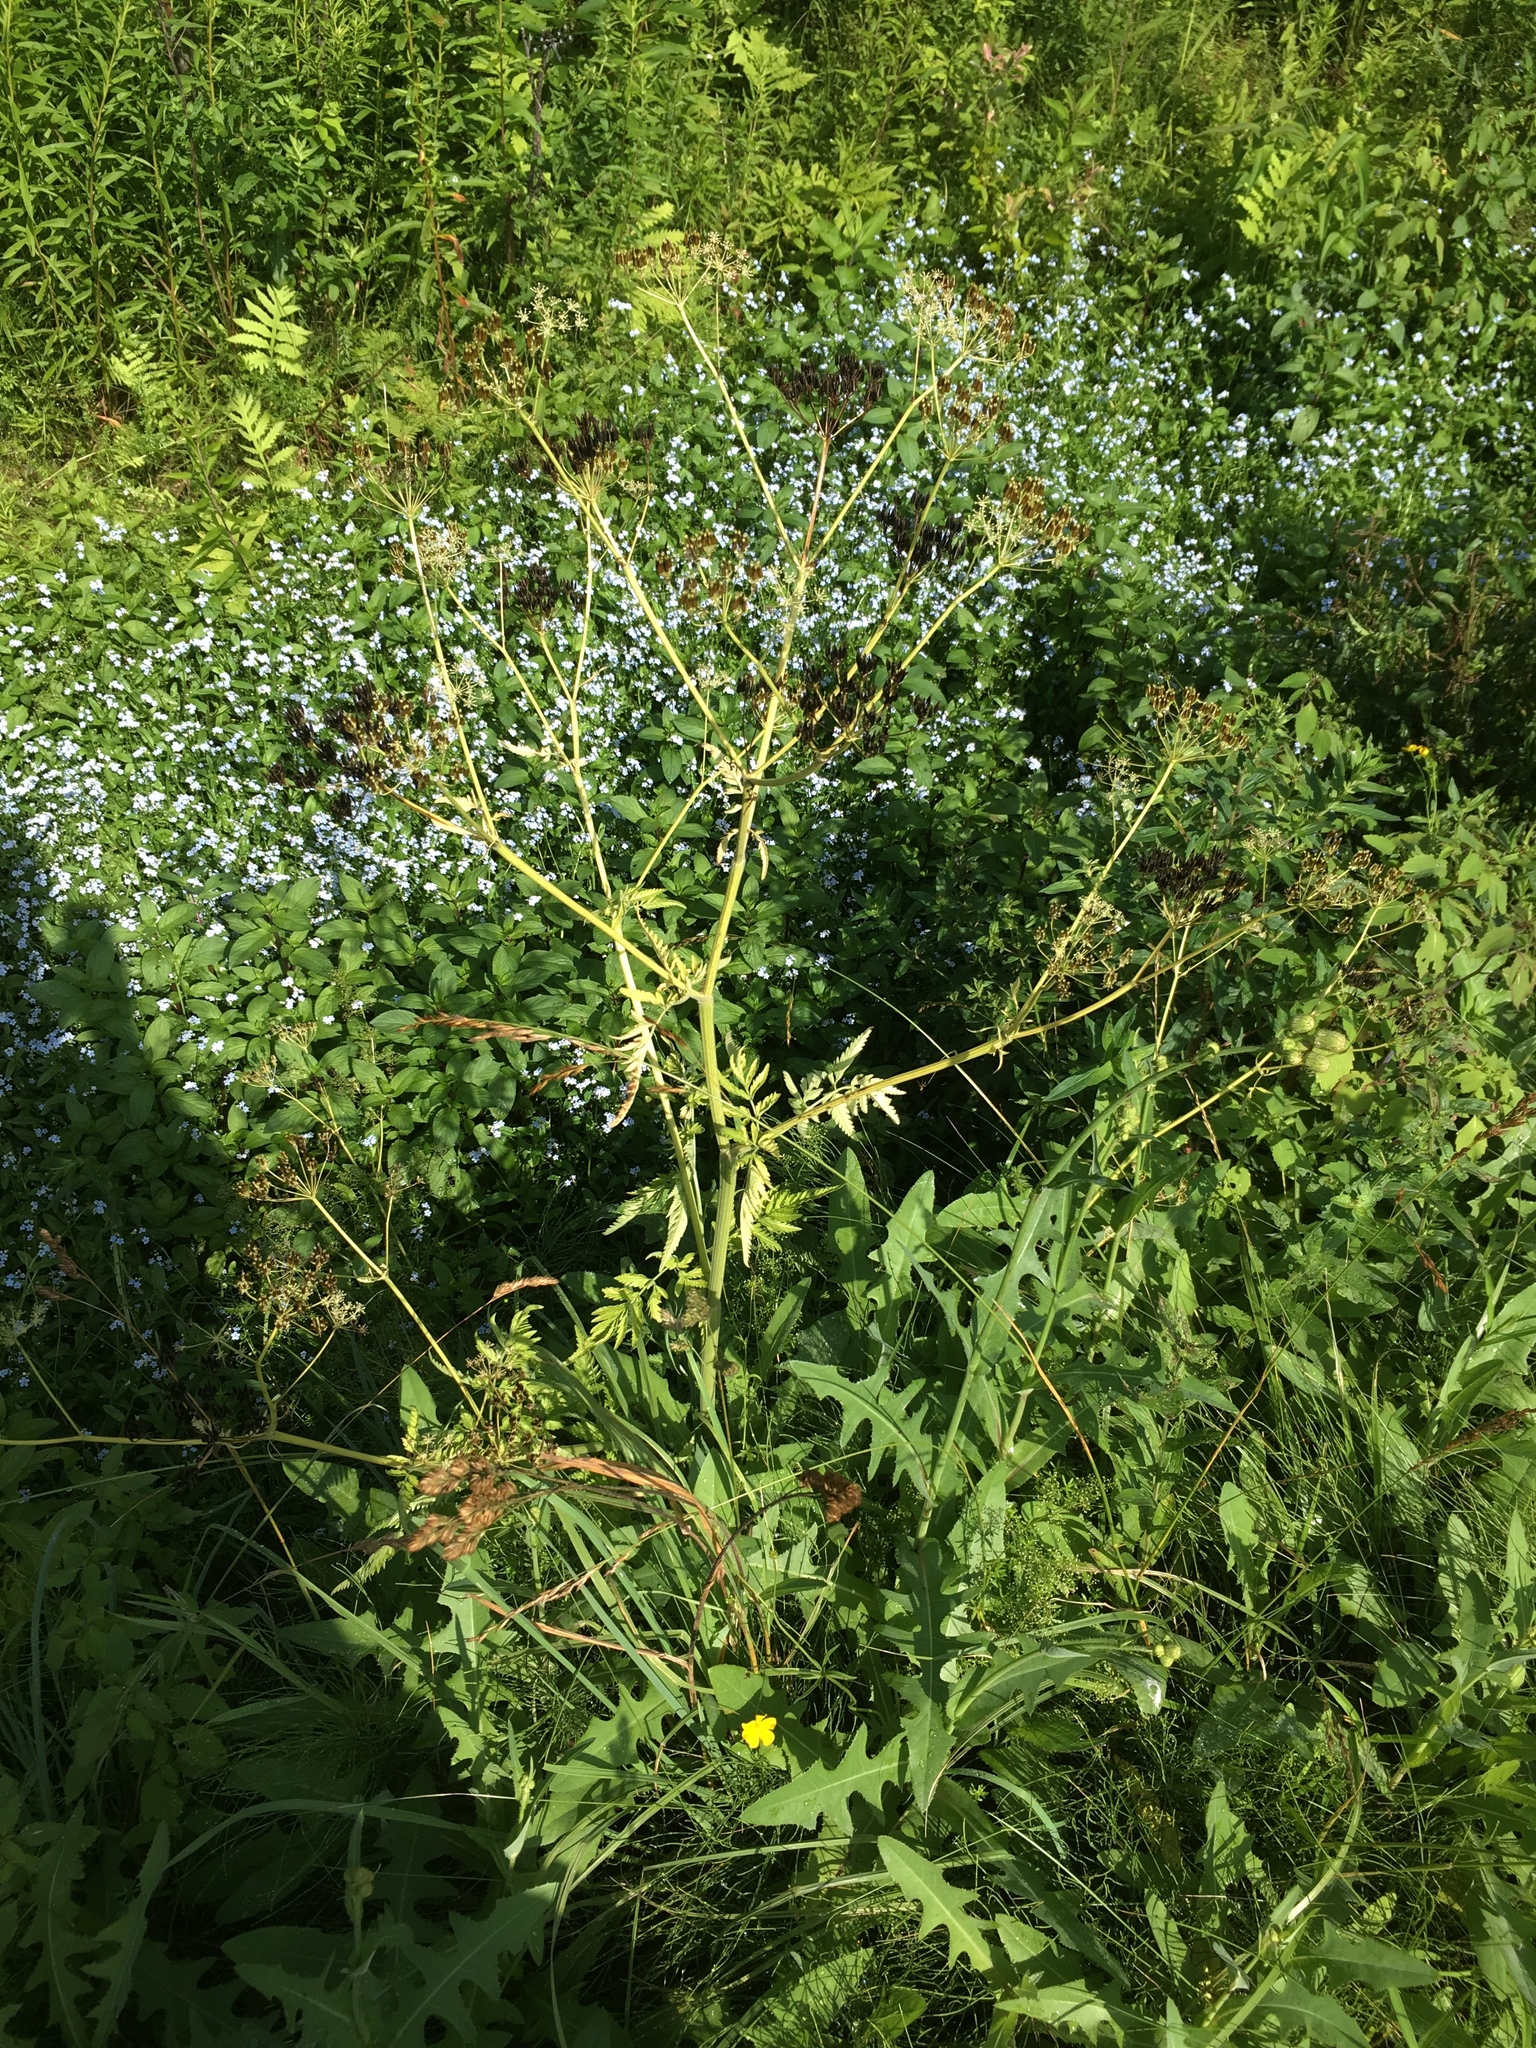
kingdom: Plantae
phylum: Tracheophyta
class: Magnoliopsida
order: Apiales
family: Apiaceae
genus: Anthriscus
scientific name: Anthriscus sylvestris
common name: Cow parsley
